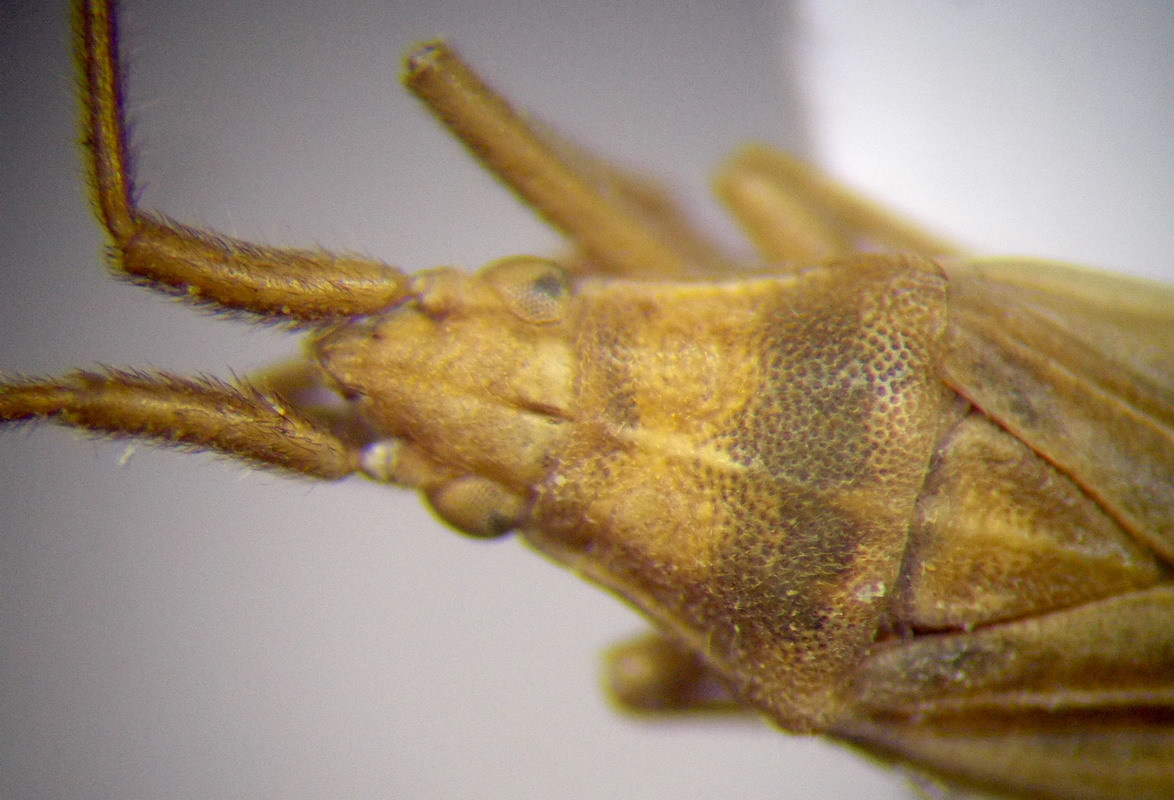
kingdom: Animalia
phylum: Arthropoda
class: Insecta
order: Hemiptera
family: Miridae
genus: Stenodema
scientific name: Stenodema calcarata
